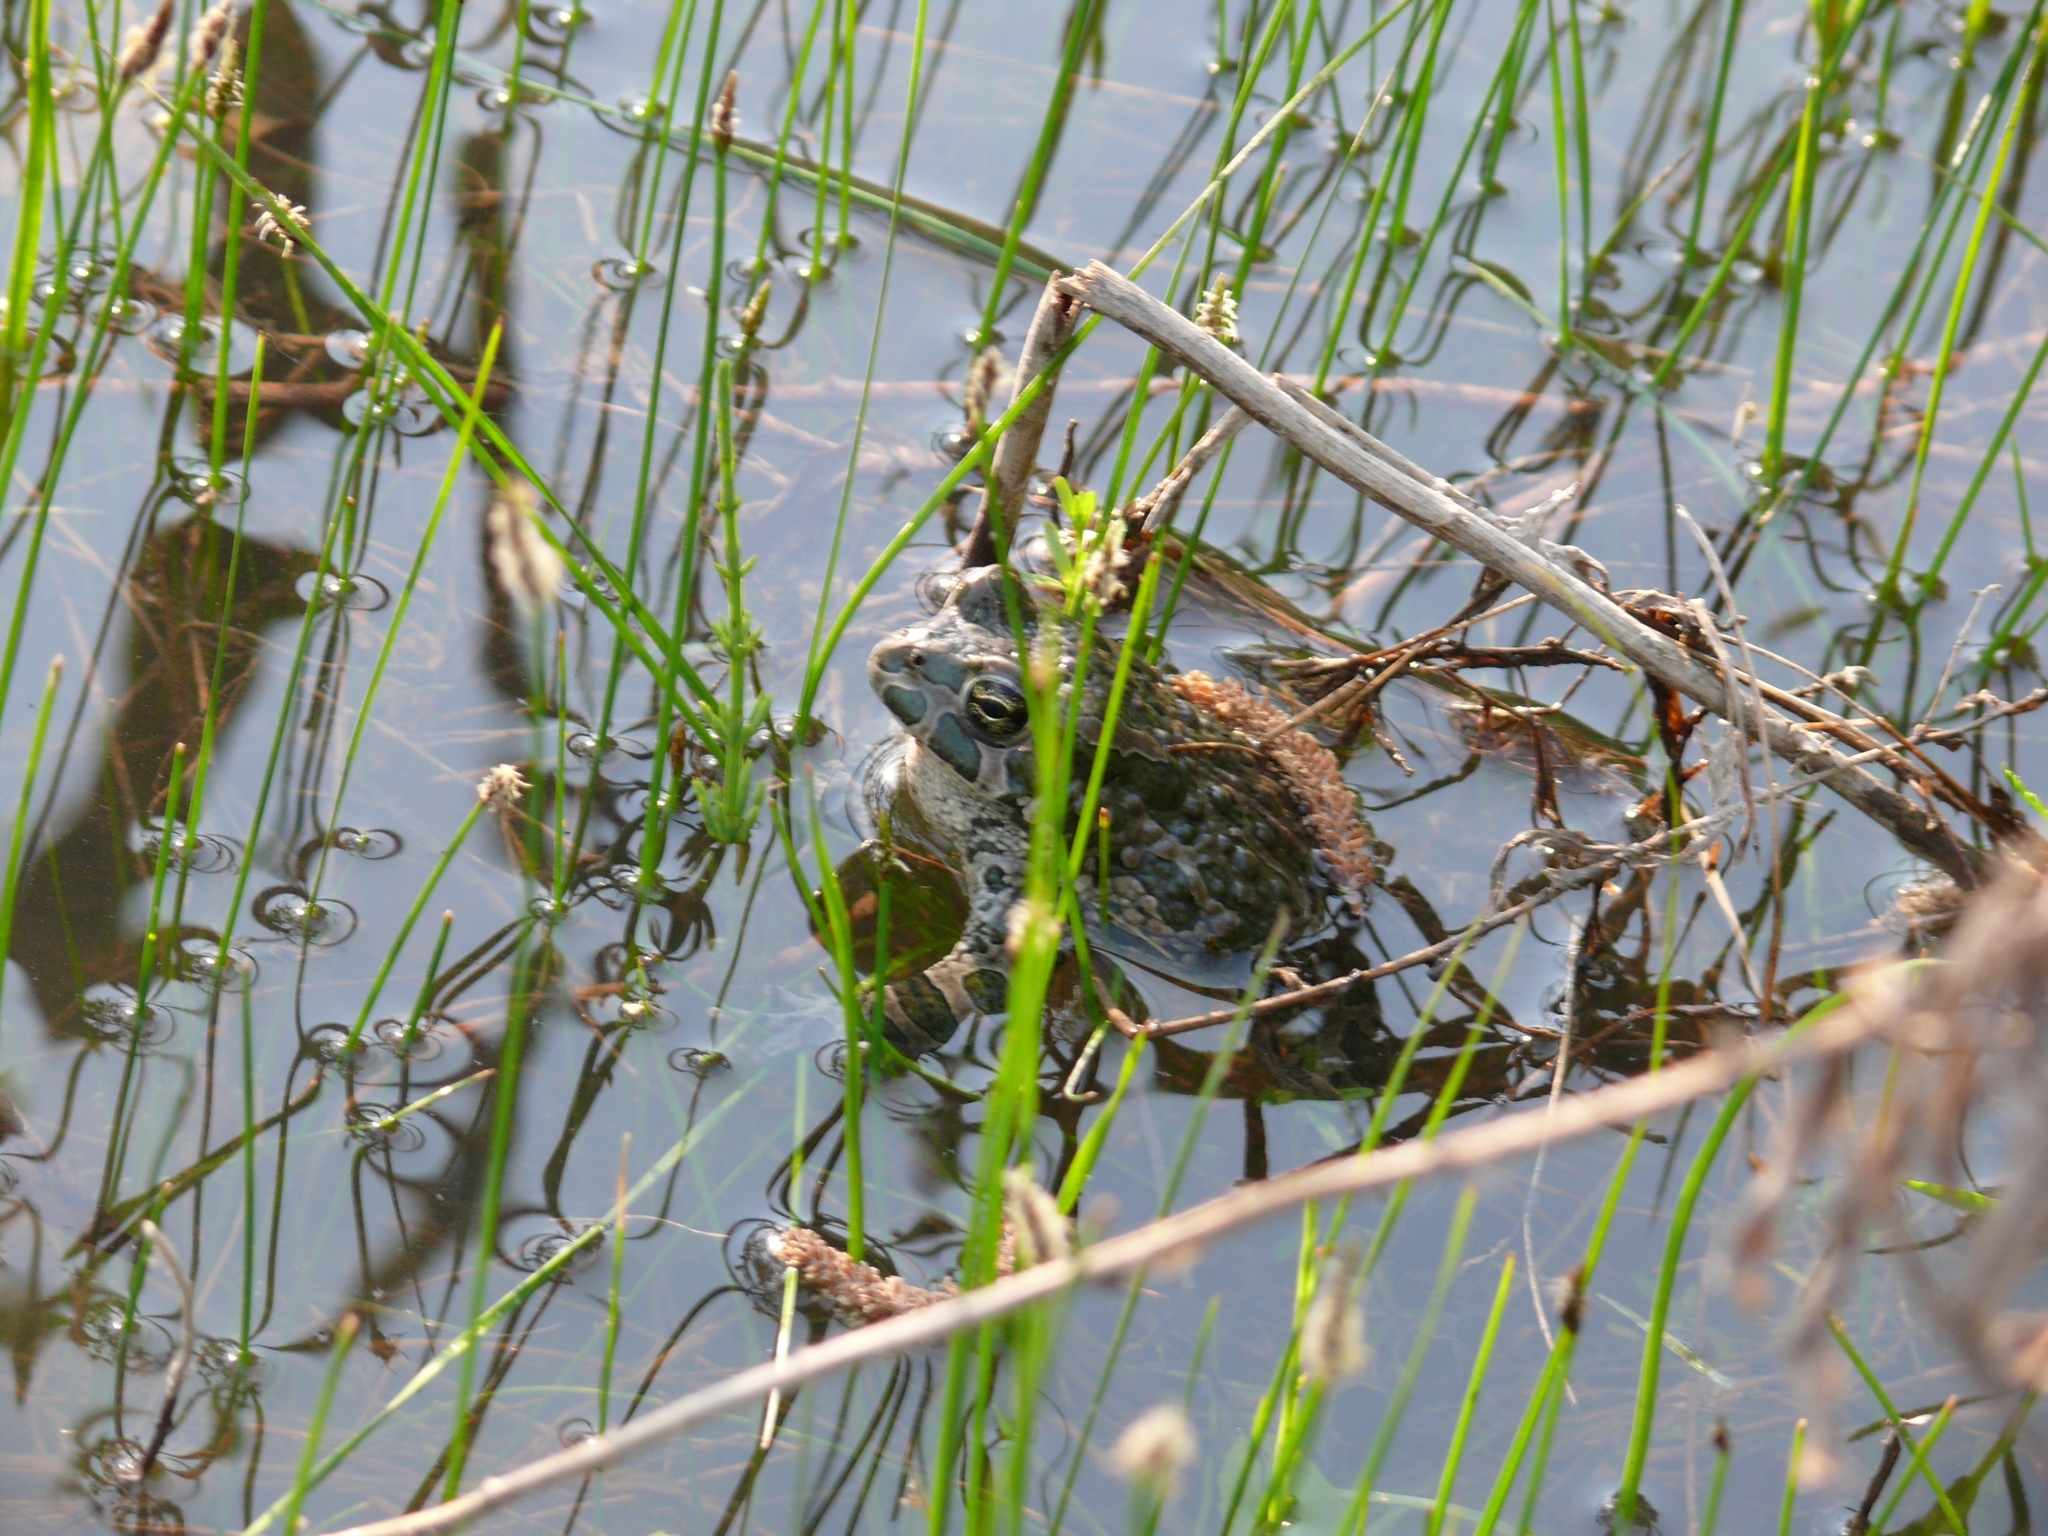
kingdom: Animalia
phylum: Chordata
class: Amphibia
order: Anura
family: Bufonidae
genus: Bufotes
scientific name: Bufotes viridis
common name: European green toad
